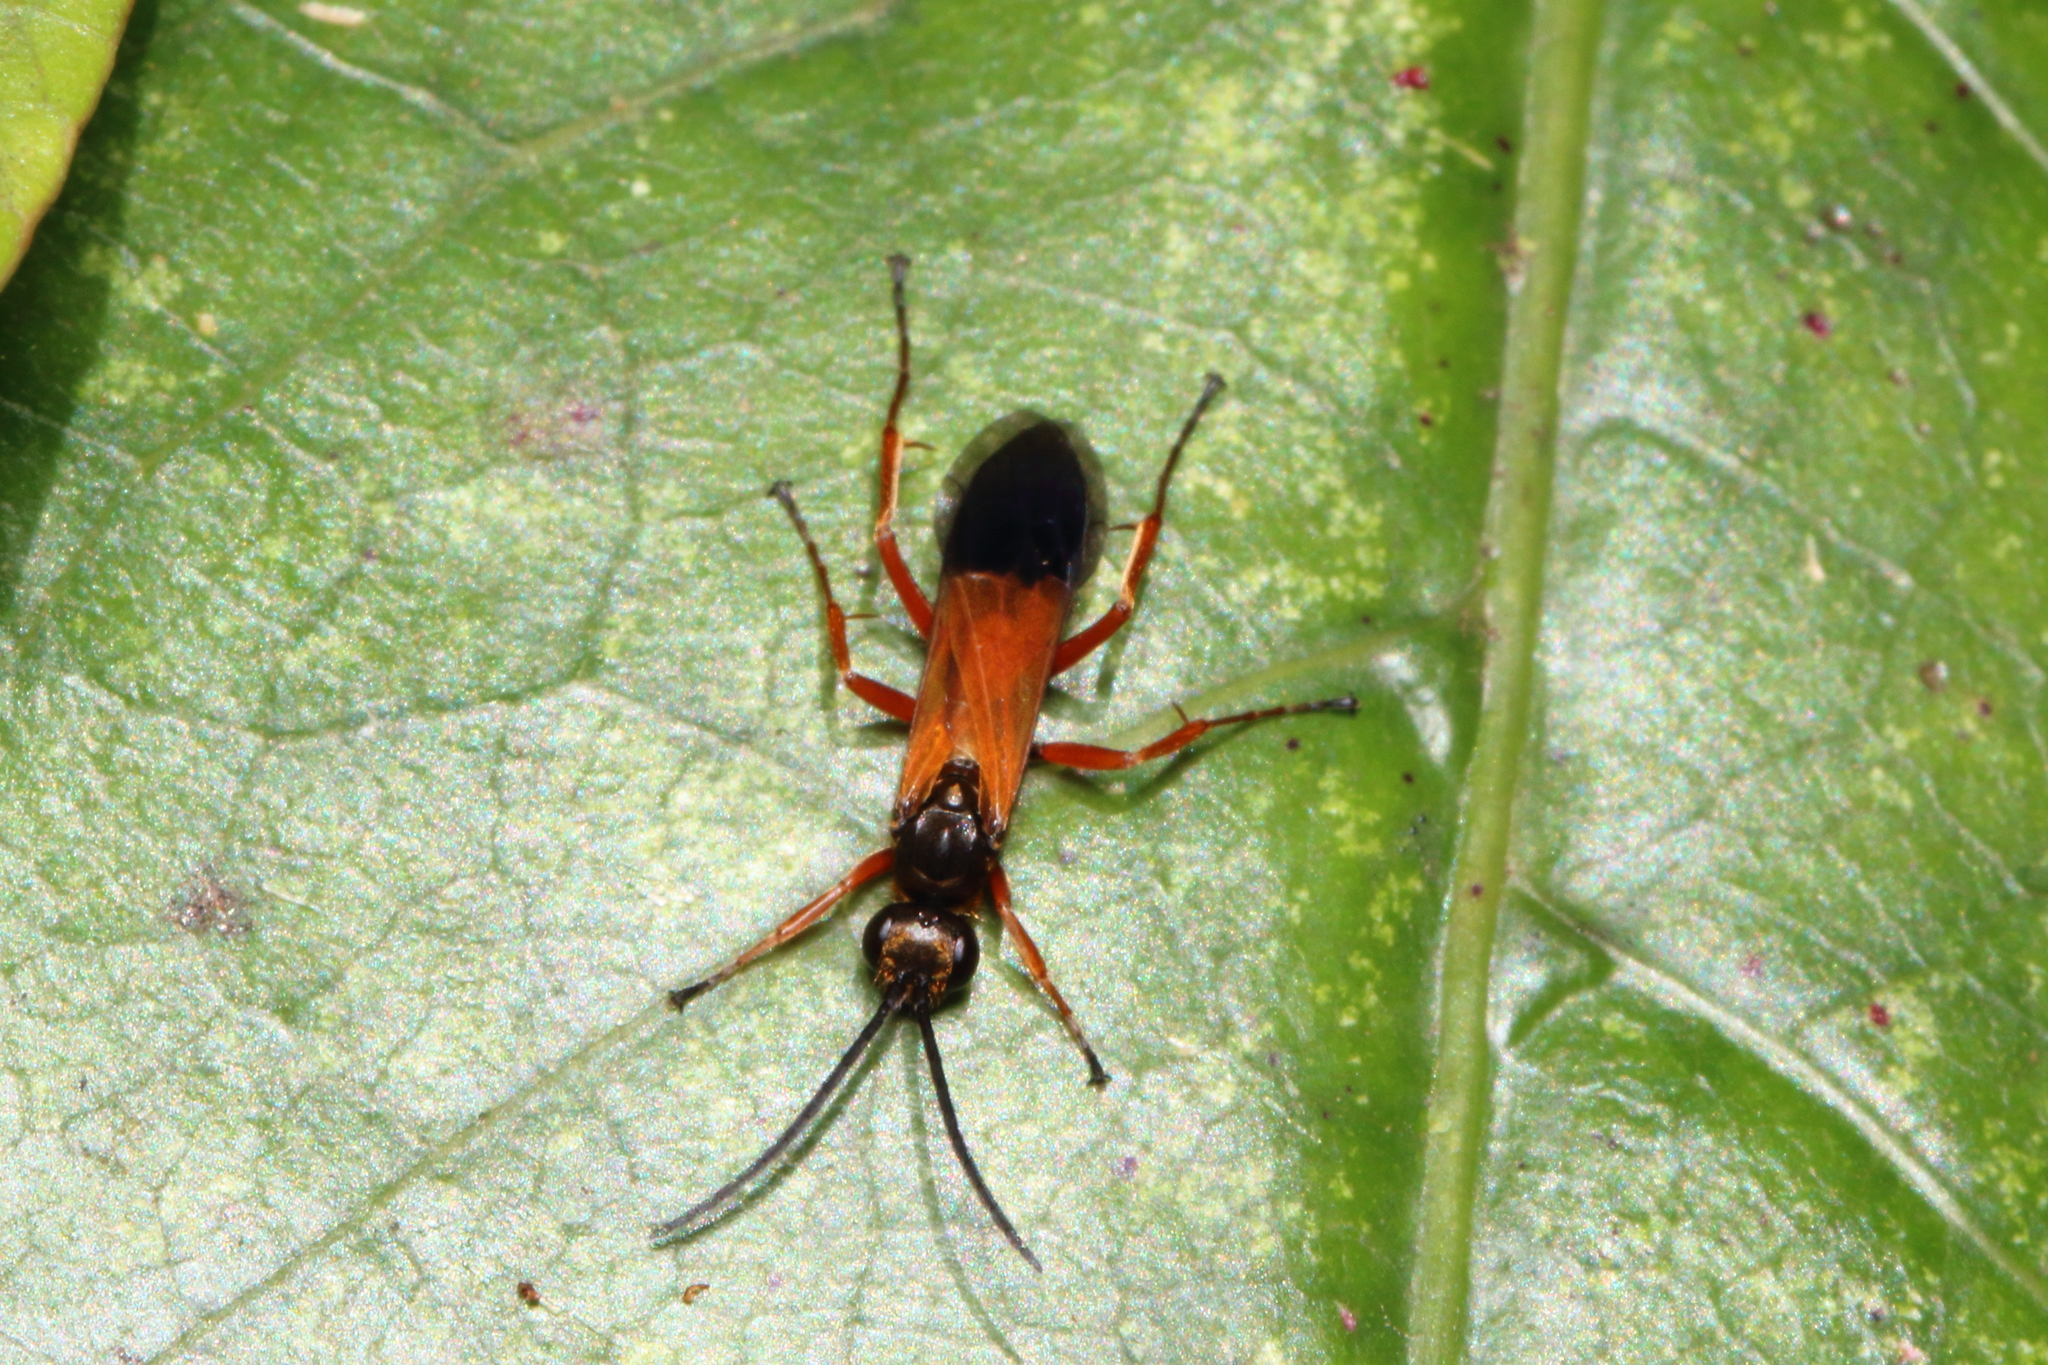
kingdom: Animalia
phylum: Arthropoda
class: Insecta
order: Hymenoptera
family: Pompilidae
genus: Priocnemis
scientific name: Priocnemis conformis
